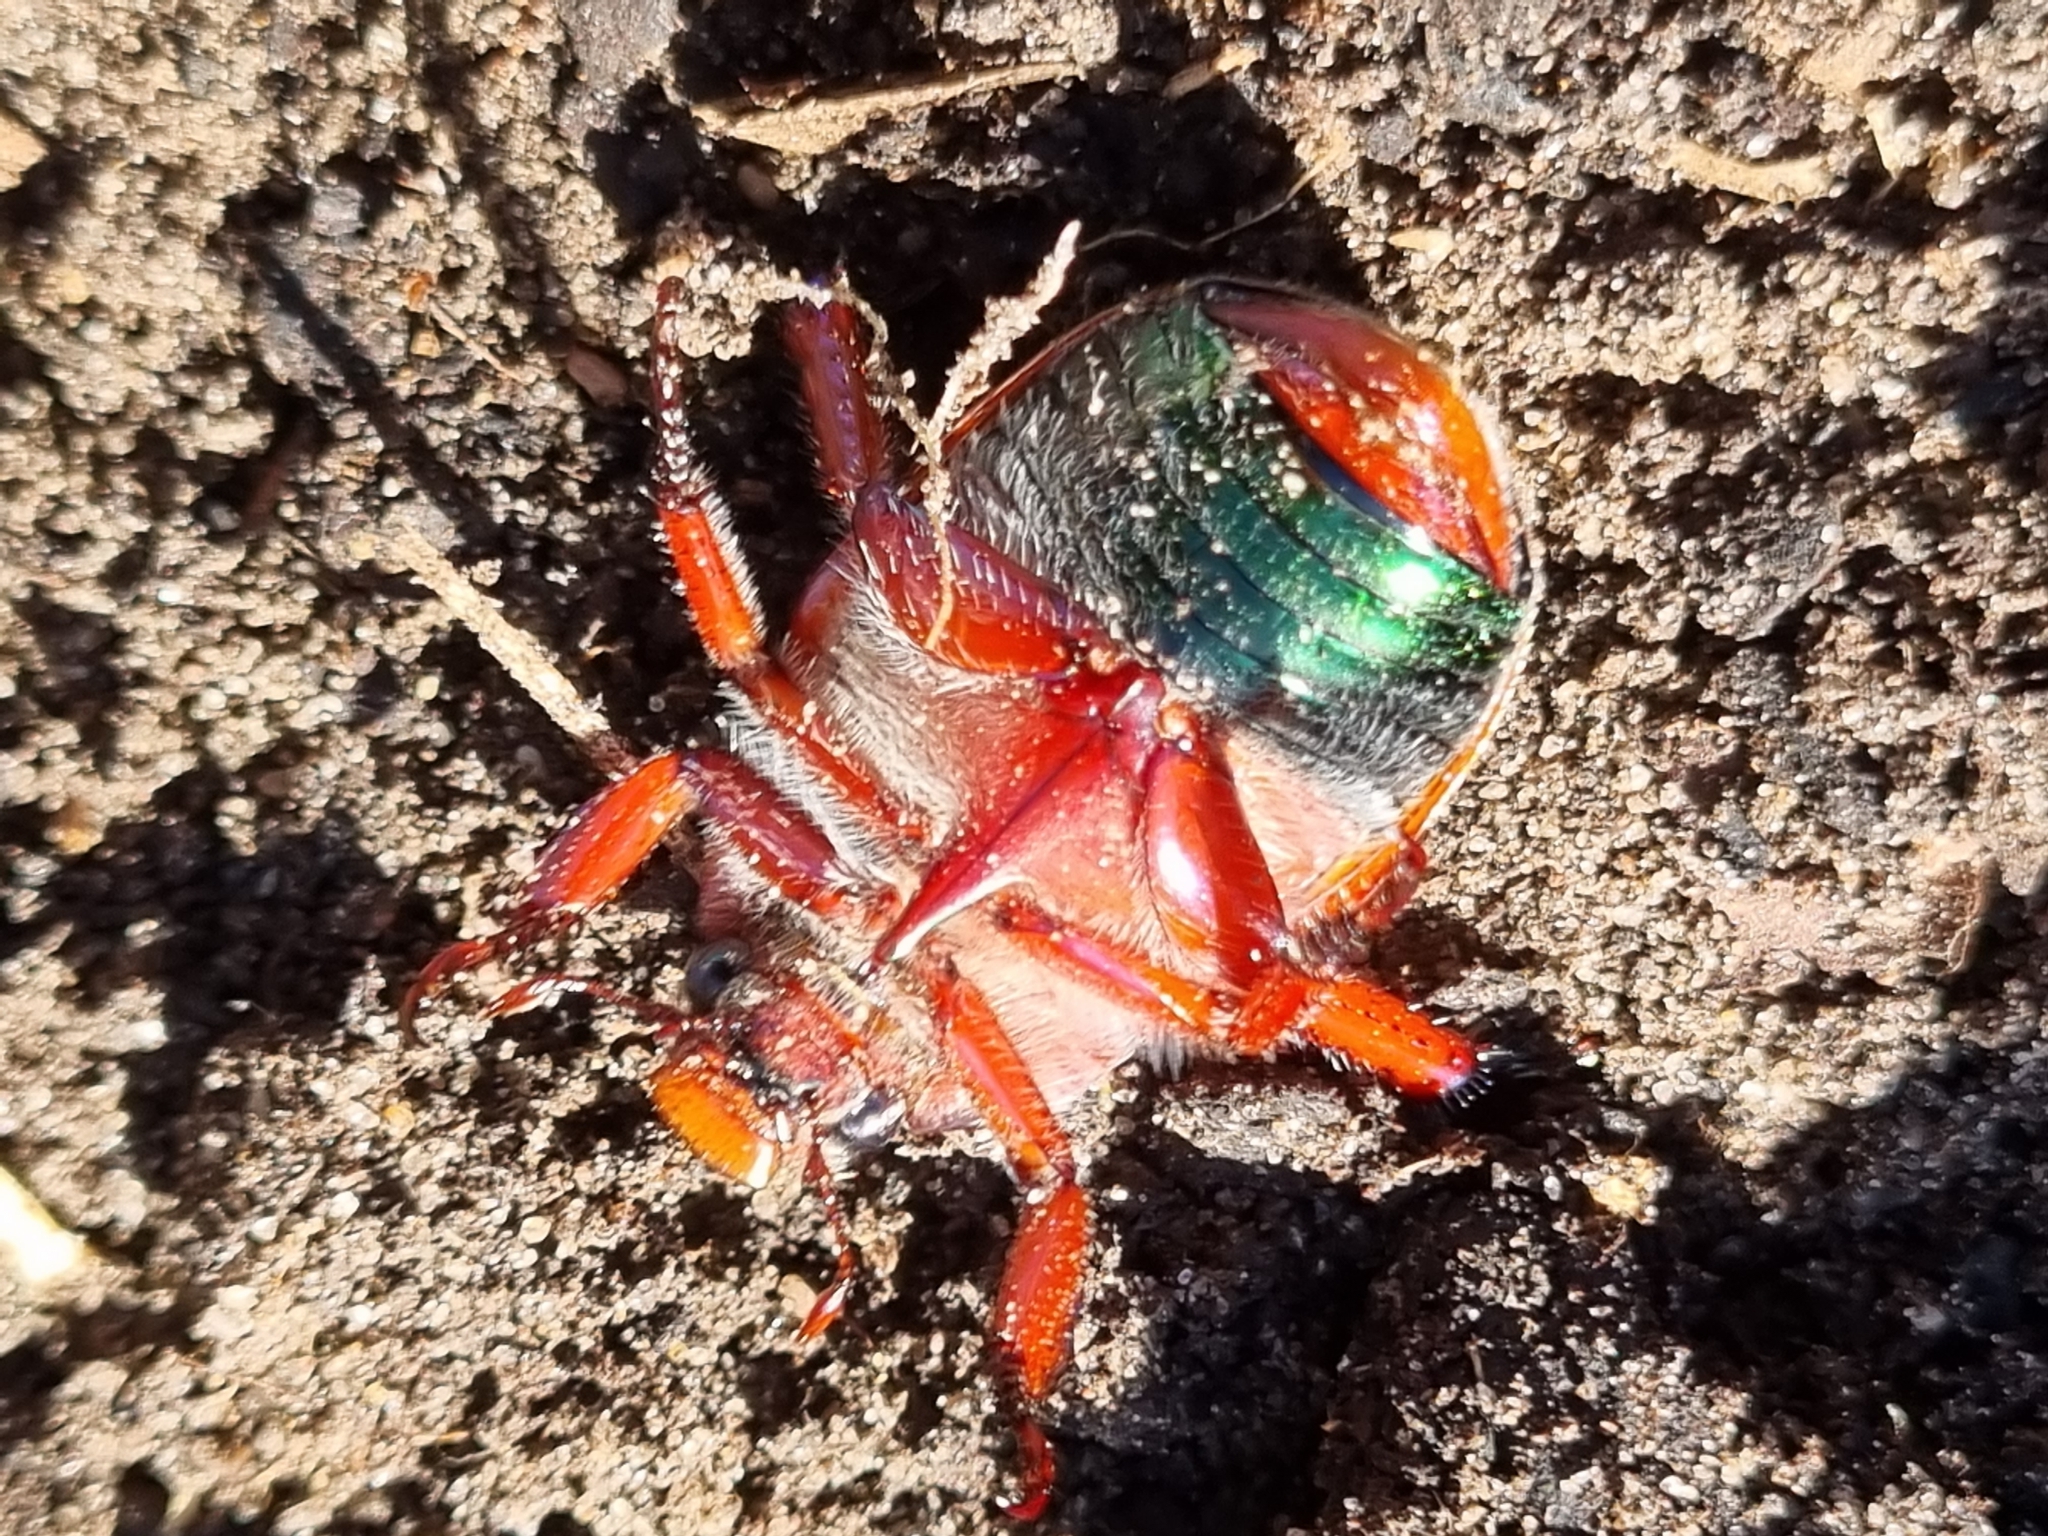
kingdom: Animalia
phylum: Arthropoda
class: Insecta
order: Coleoptera
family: Scarabaeidae
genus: Anoplognathus
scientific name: Anoplognathus olivieri
